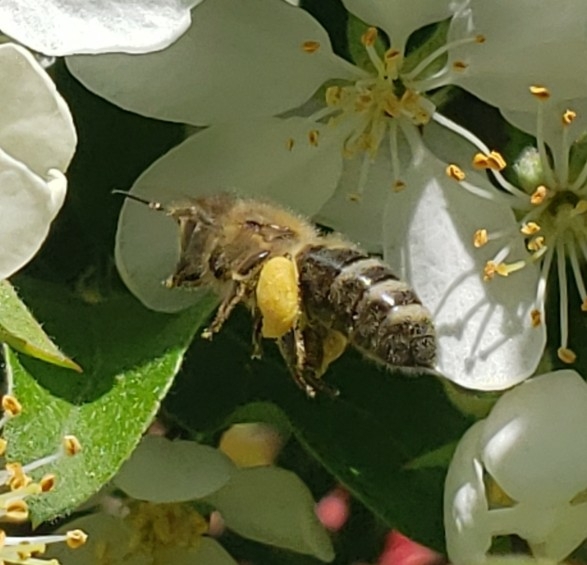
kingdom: Animalia
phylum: Arthropoda
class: Insecta
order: Hymenoptera
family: Apidae
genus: Apis
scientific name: Apis mellifera
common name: Honey bee
